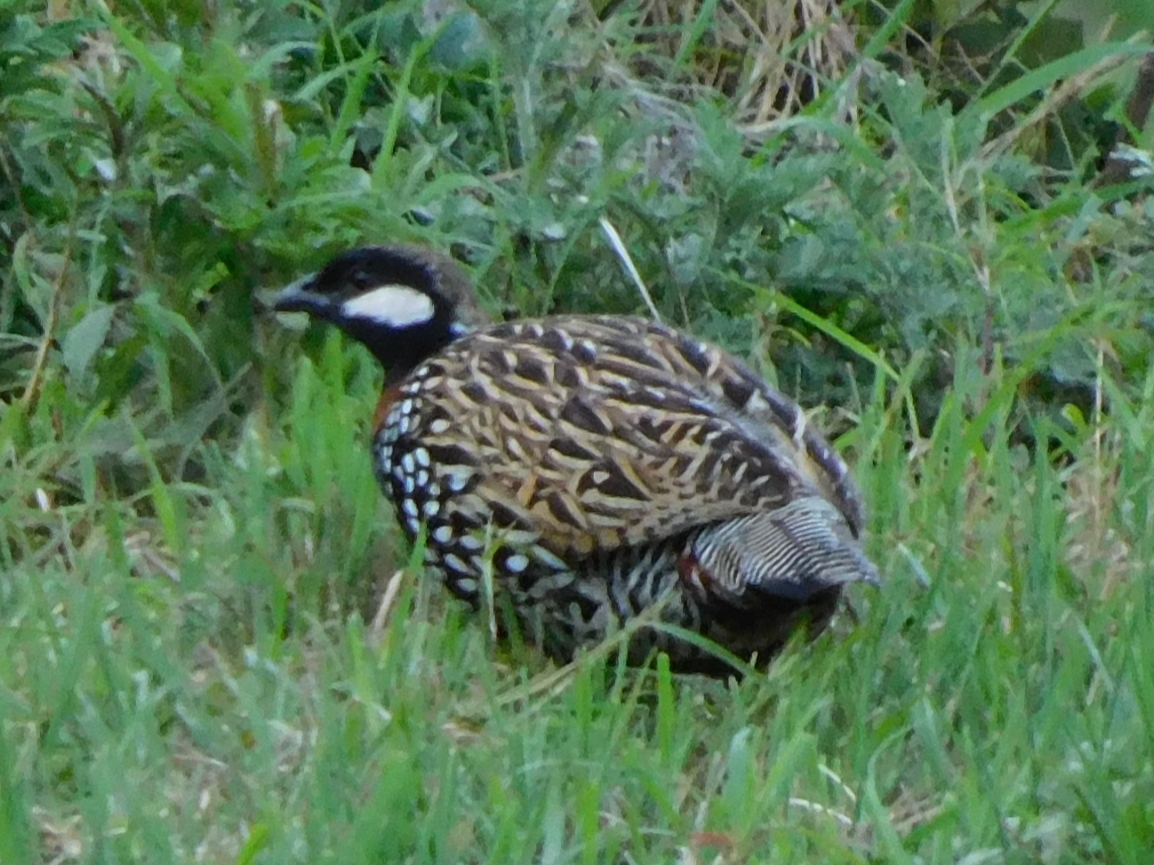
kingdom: Animalia
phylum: Chordata
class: Aves
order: Galliformes
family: Phasianidae
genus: Francolinus
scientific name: Francolinus francolinus
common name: Black francolin
